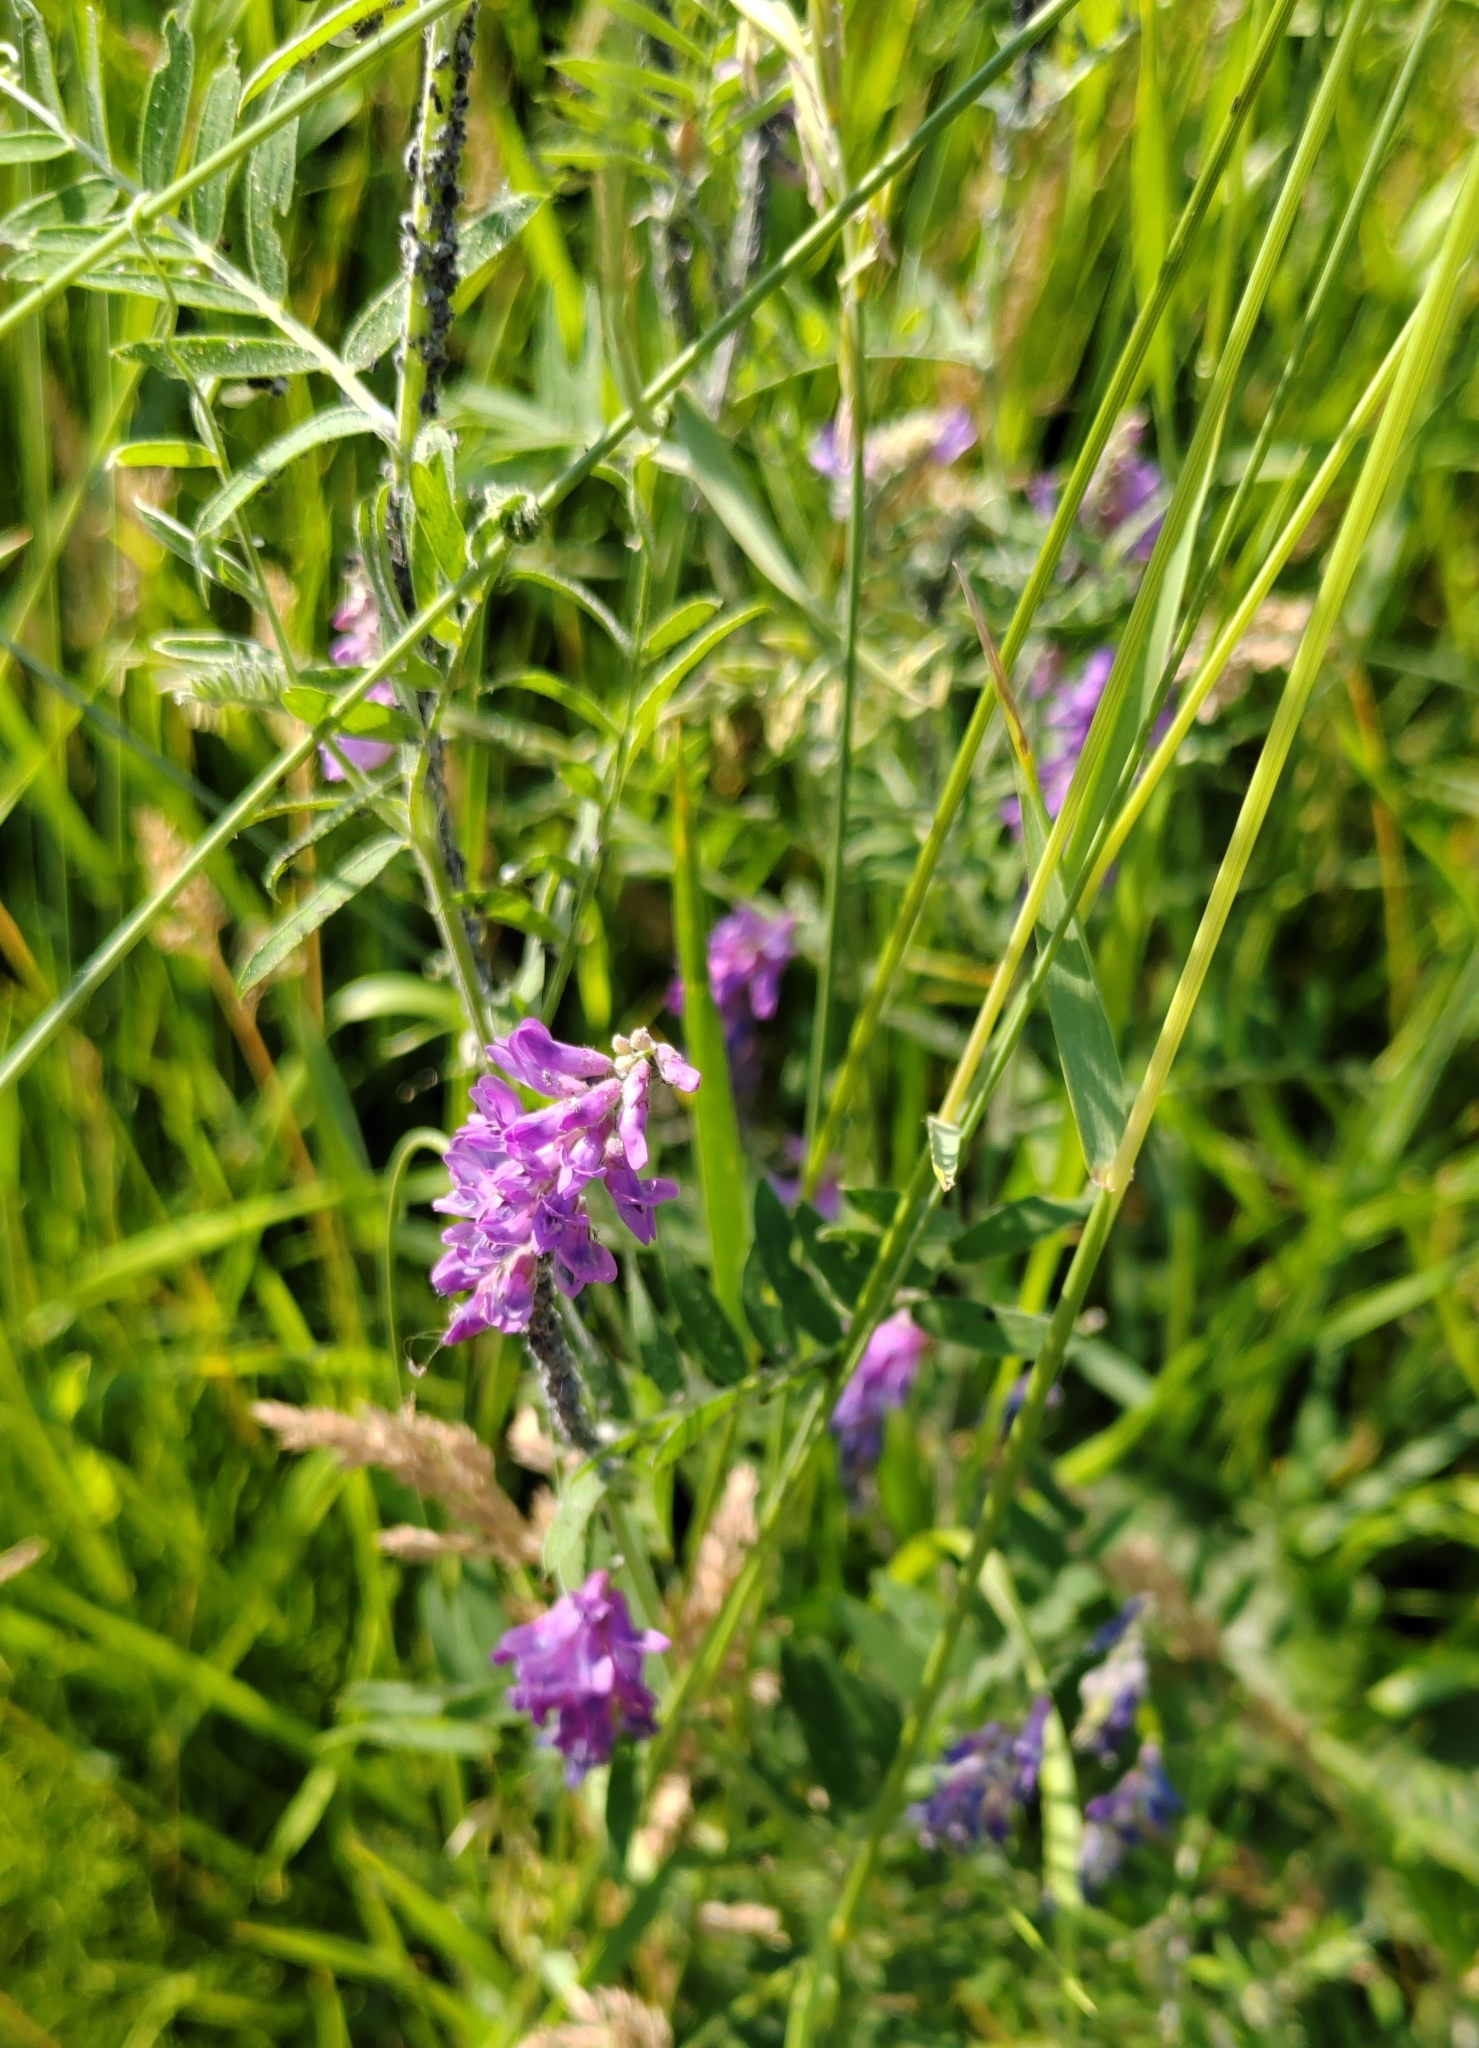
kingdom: Plantae
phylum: Tracheophyta
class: Magnoliopsida
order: Fabales
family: Fabaceae
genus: Vicia
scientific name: Vicia cracca
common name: Bird vetch
